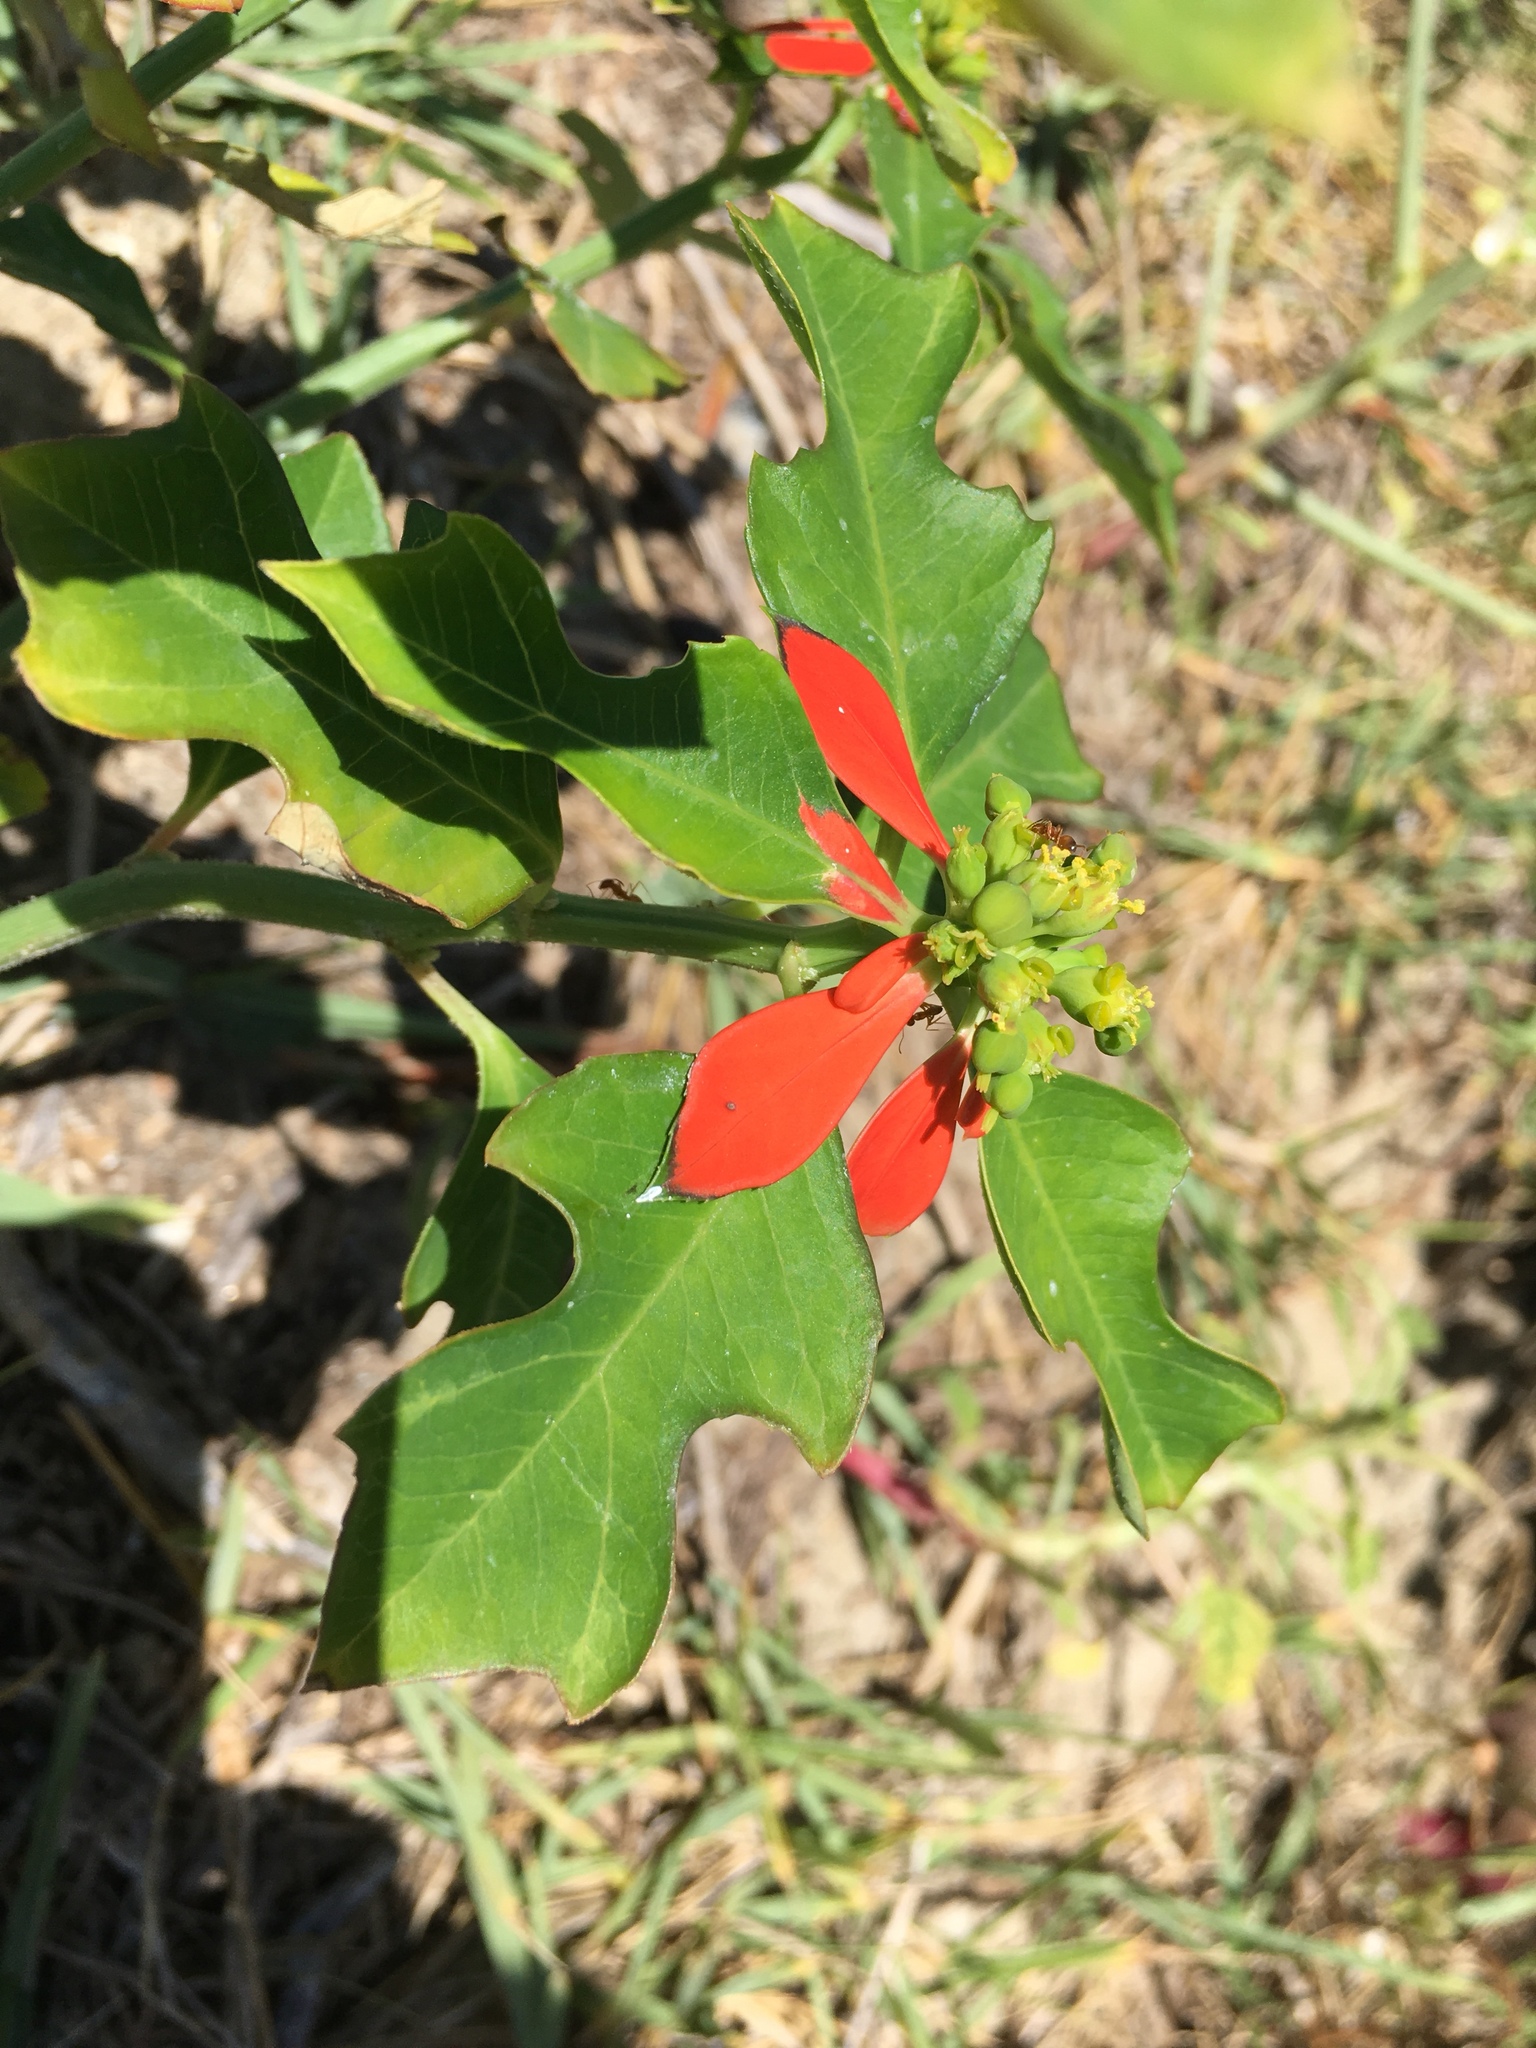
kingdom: Plantae
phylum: Tracheophyta
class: Magnoliopsida
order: Malpighiales
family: Euphorbiaceae
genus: Euphorbia
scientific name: Euphorbia heterophylla
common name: Mexican fireplant
